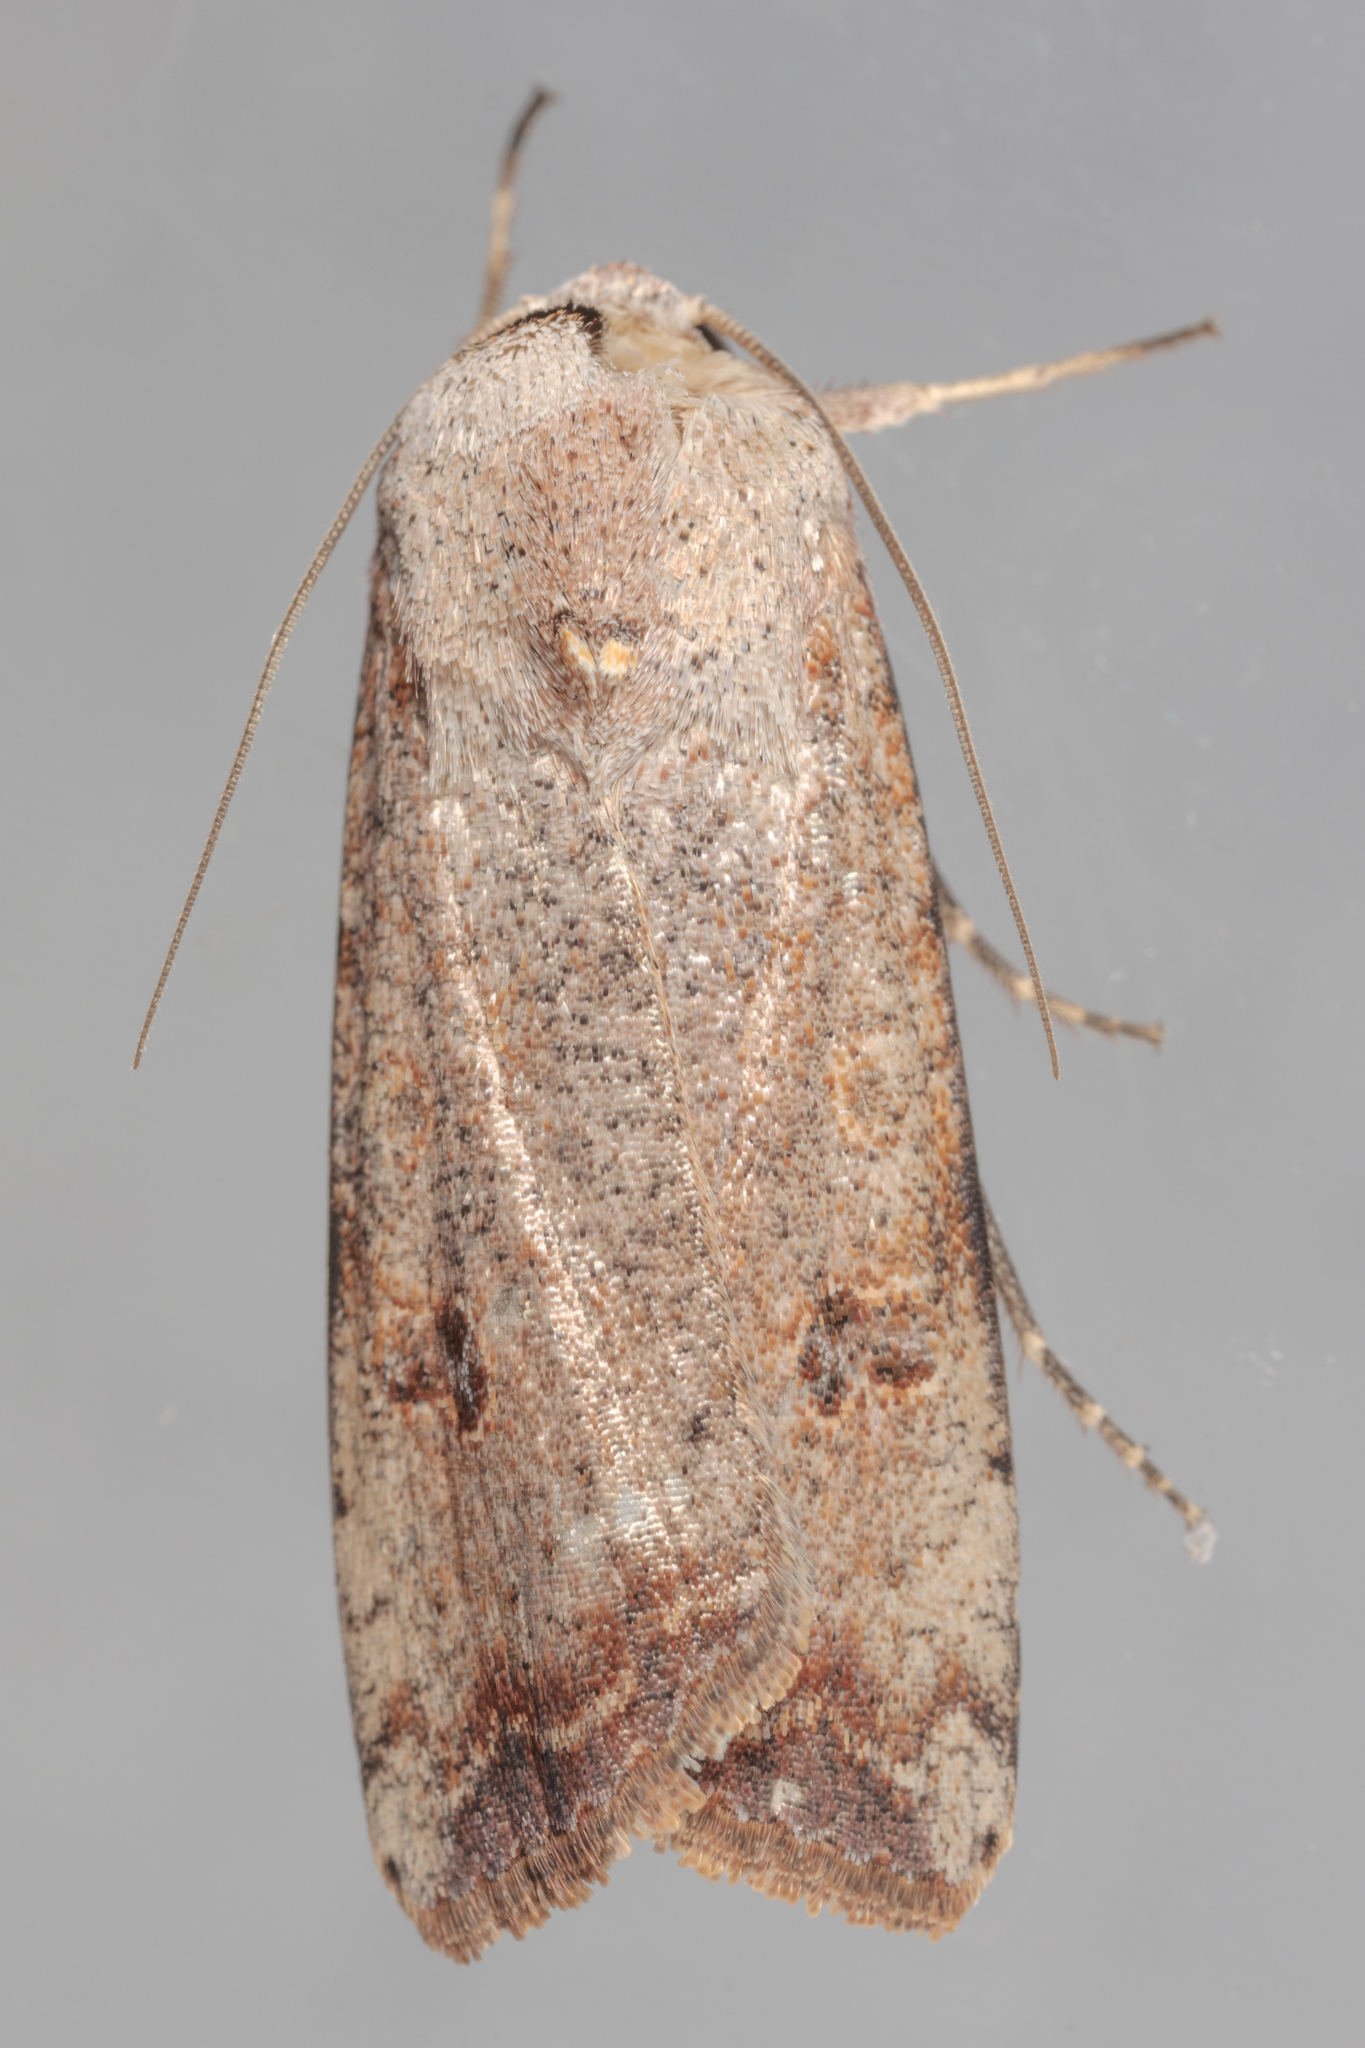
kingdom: Animalia
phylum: Arthropoda
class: Insecta
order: Lepidoptera
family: Noctuidae
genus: Anicla
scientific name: Anicla infecta
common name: Green cutworm
